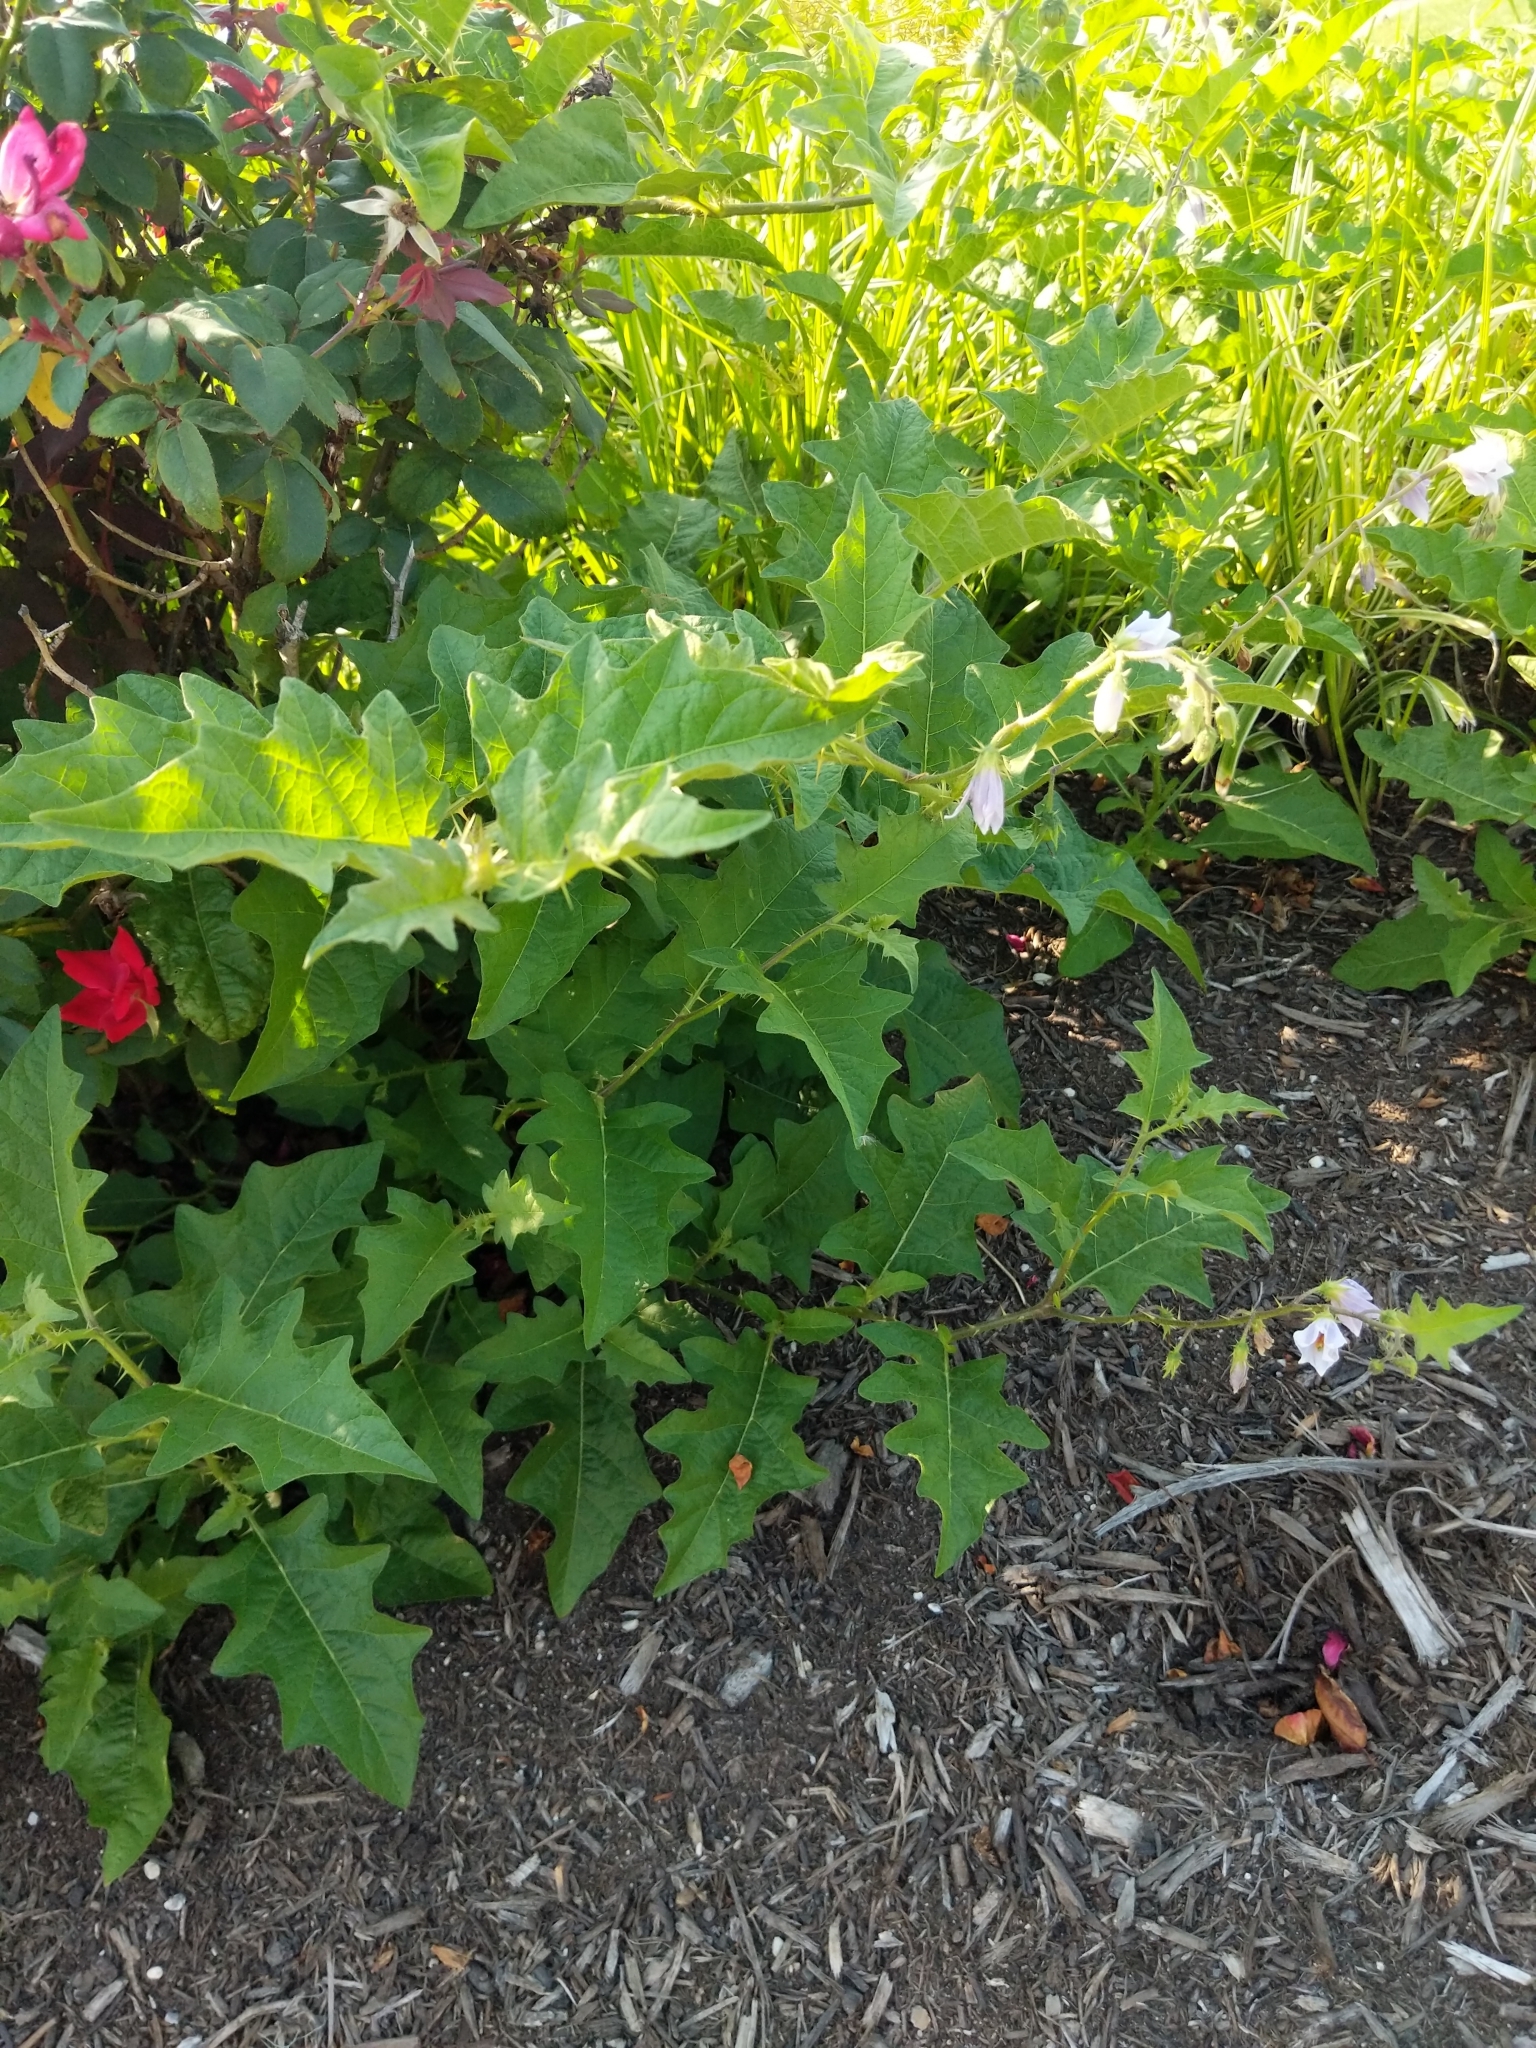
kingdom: Plantae
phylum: Tracheophyta
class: Magnoliopsida
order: Solanales
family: Solanaceae
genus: Solanum
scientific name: Solanum carolinense
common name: Horse-nettle
